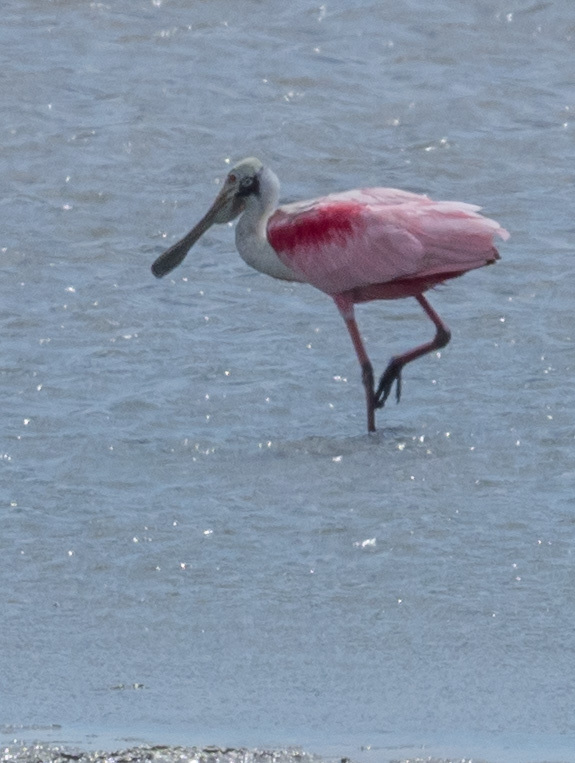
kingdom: Animalia
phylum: Chordata
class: Aves
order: Pelecaniformes
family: Threskiornithidae
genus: Platalea
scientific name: Platalea ajaja
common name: Roseate spoonbill
